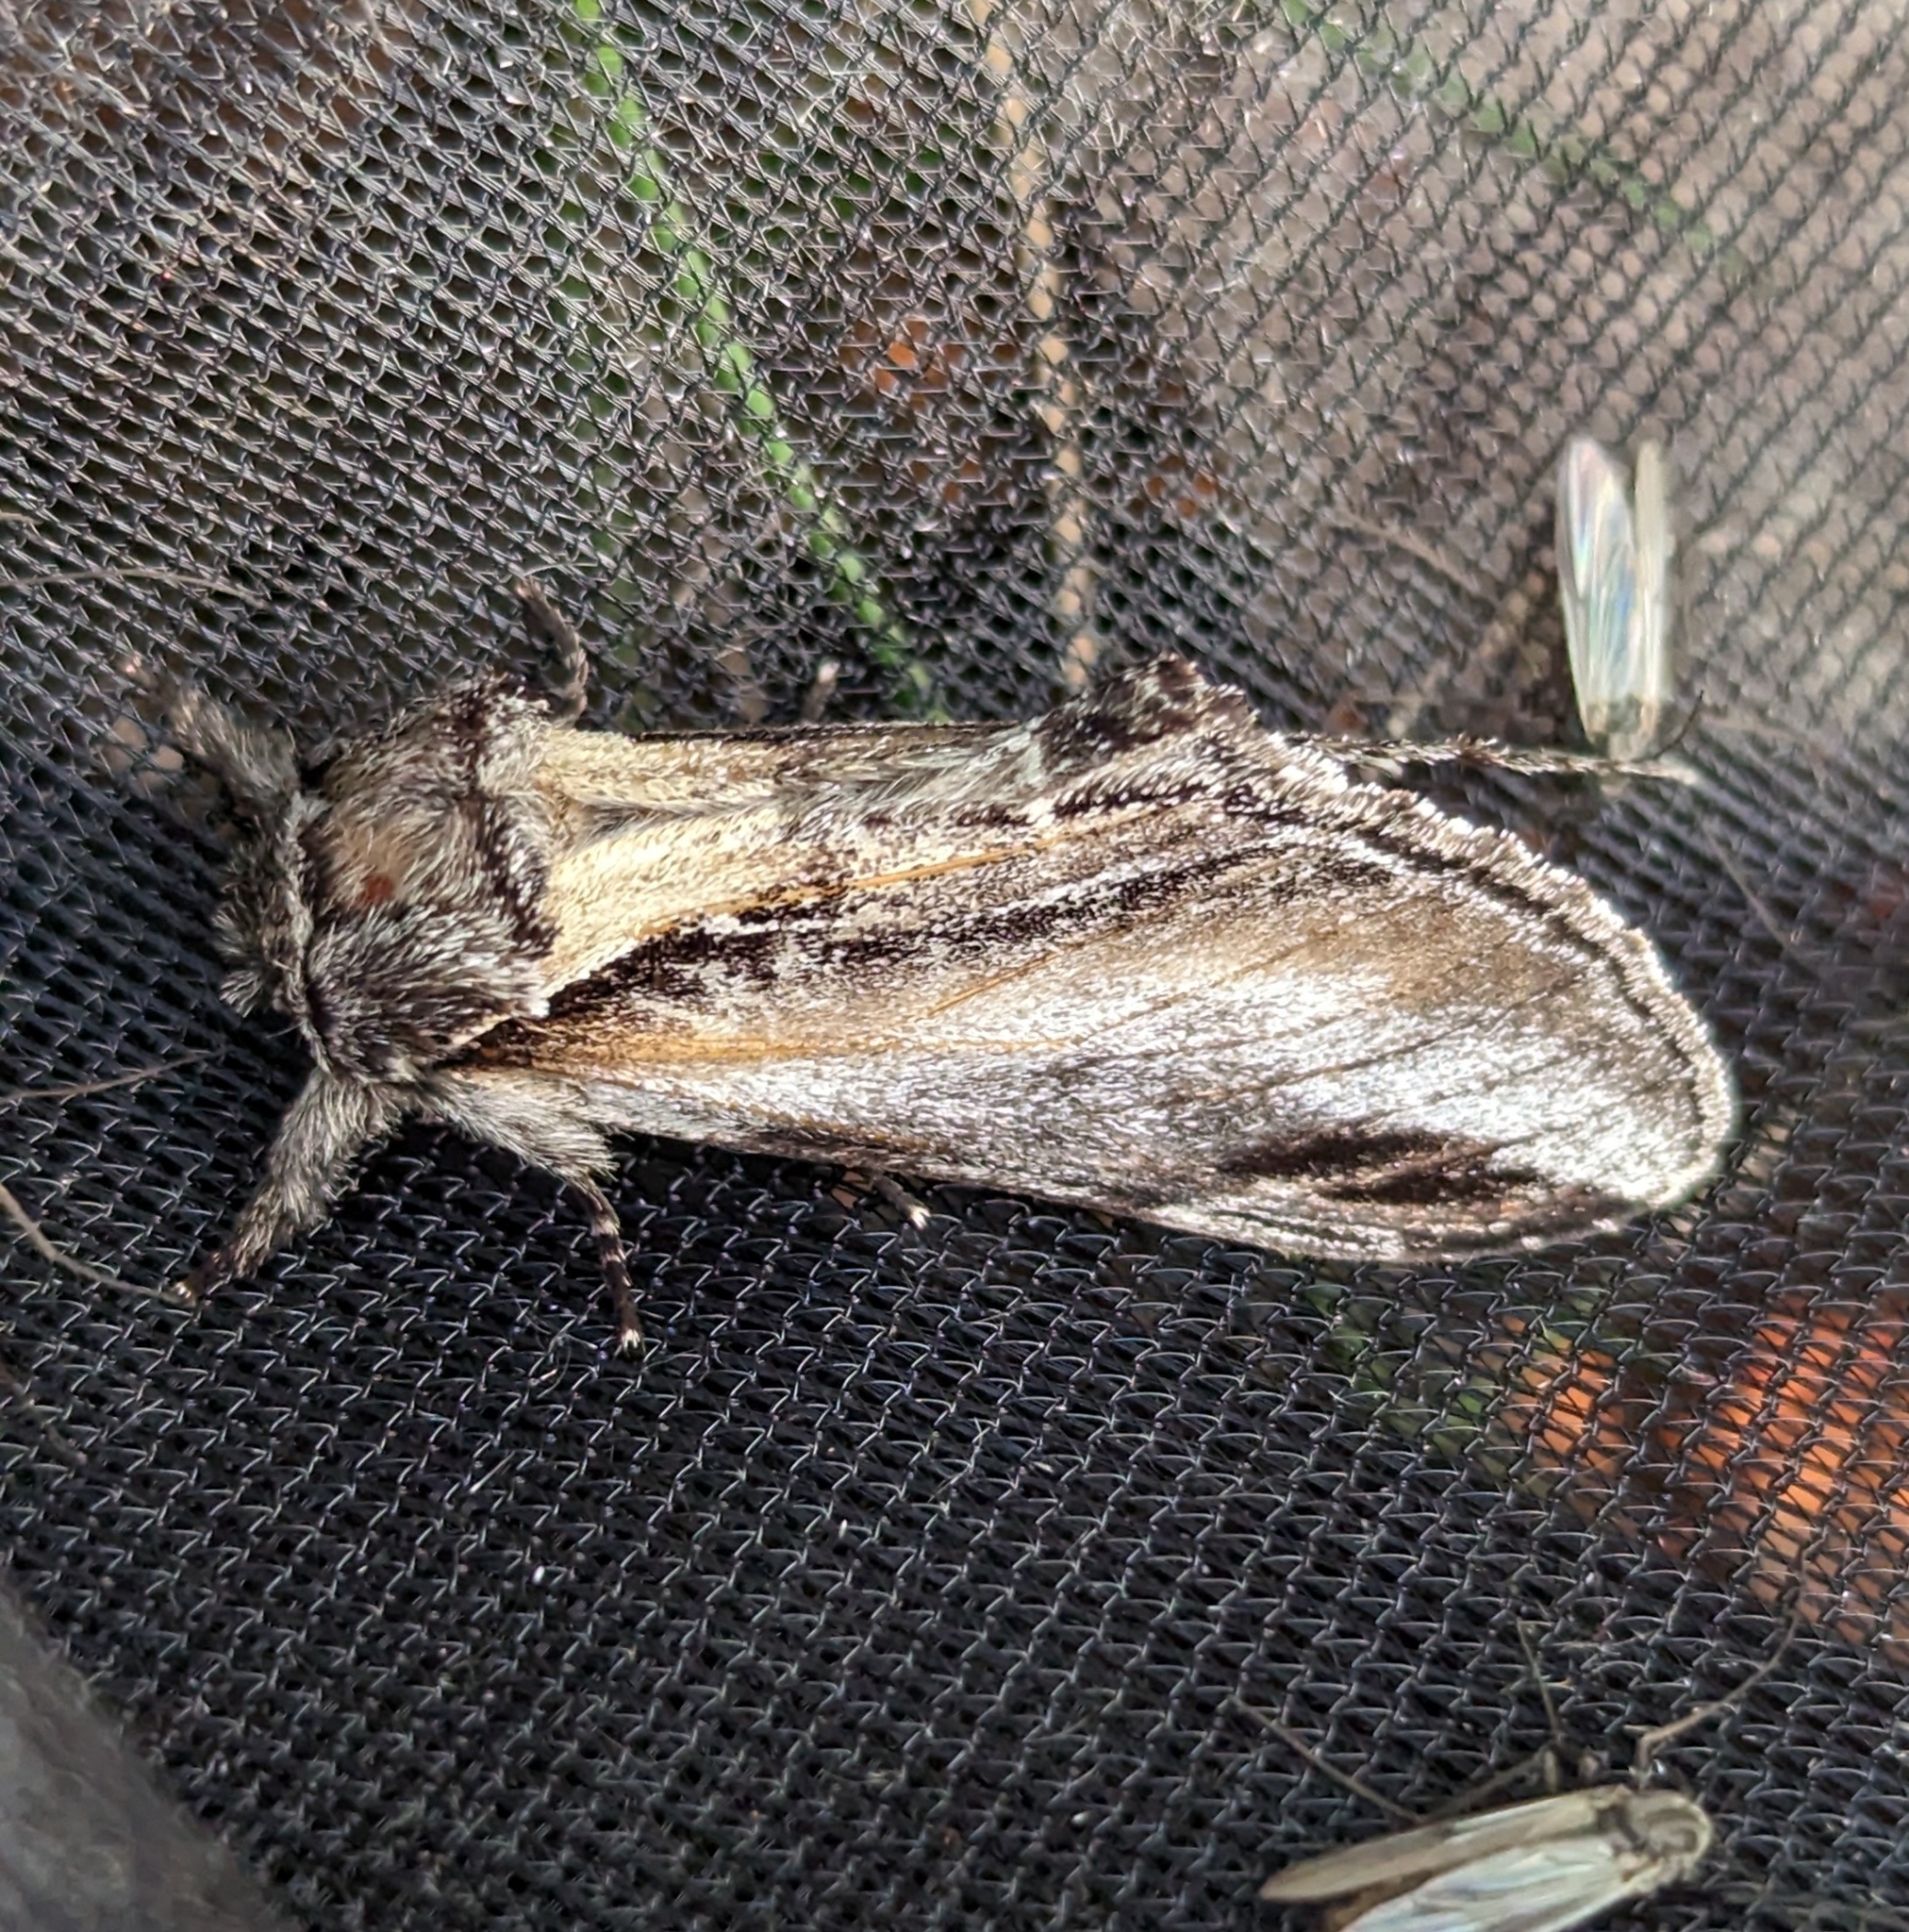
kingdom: Animalia
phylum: Arthropoda
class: Insecta
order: Lepidoptera
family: Notodontidae
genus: Pheosia
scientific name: Pheosia rimosa
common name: Black-rimmed prominent
